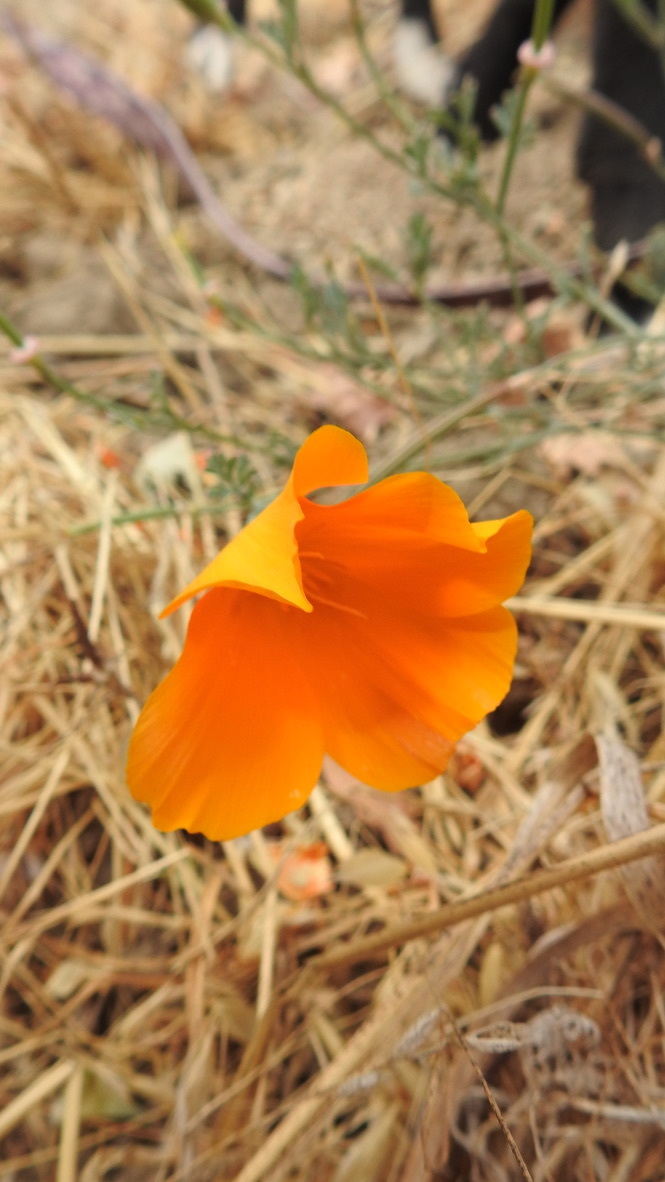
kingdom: Plantae
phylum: Tracheophyta
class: Magnoliopsida
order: Ranunculales
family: Papaveraceae
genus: Eschscholzia
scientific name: Eschscholzia californica
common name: California poppy
